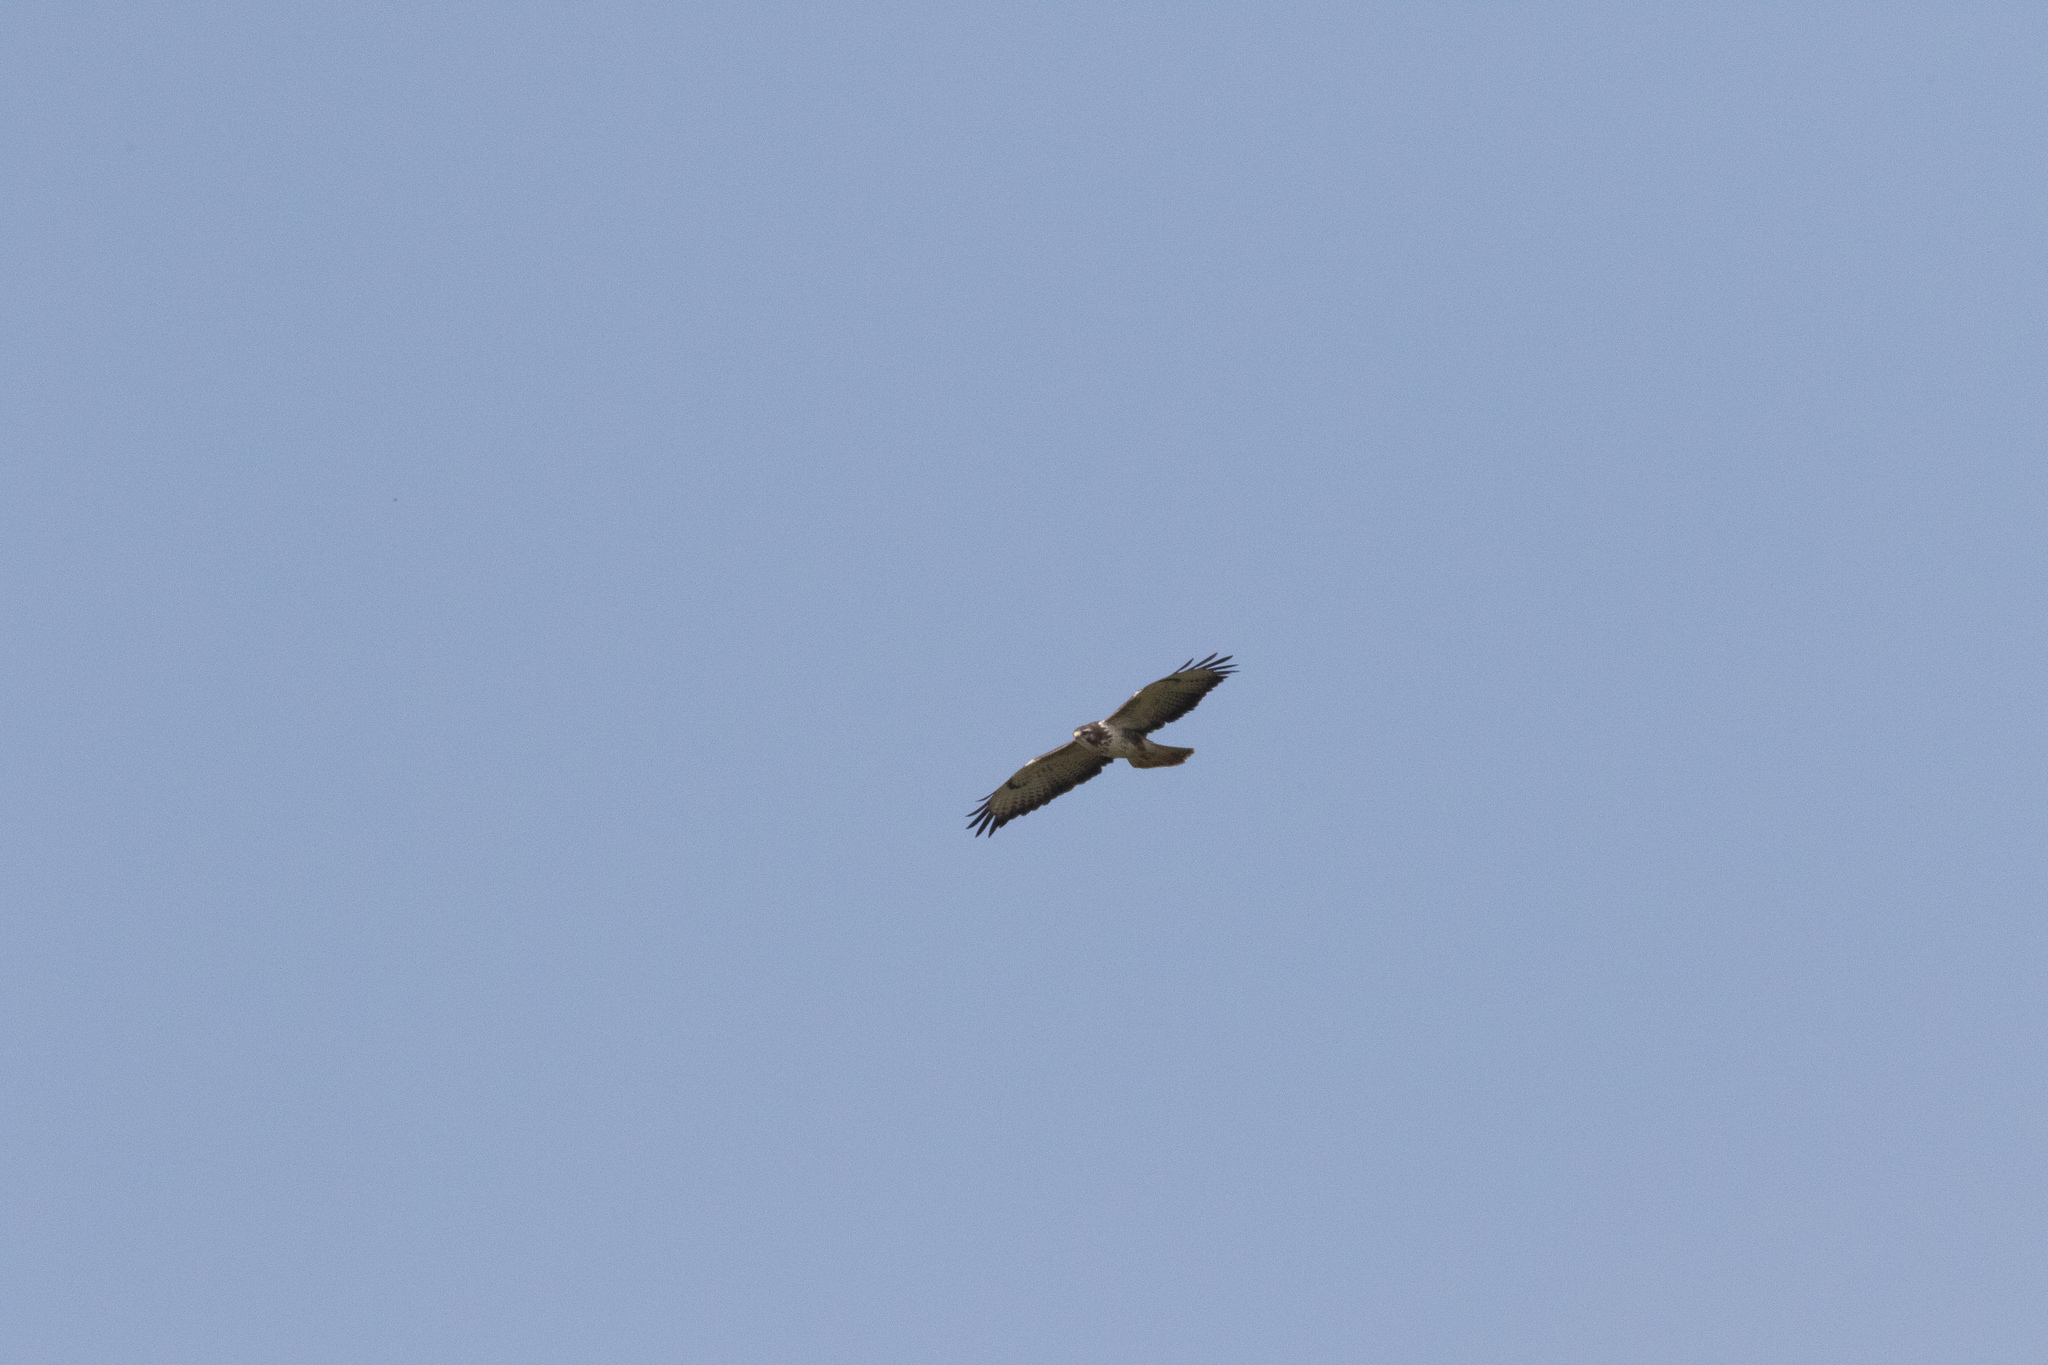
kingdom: Animalia
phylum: Chordata
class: Aves
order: Accipitriformes
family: Accipitridae
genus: Buteo
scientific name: Buteo buteo
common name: Common buzzard
